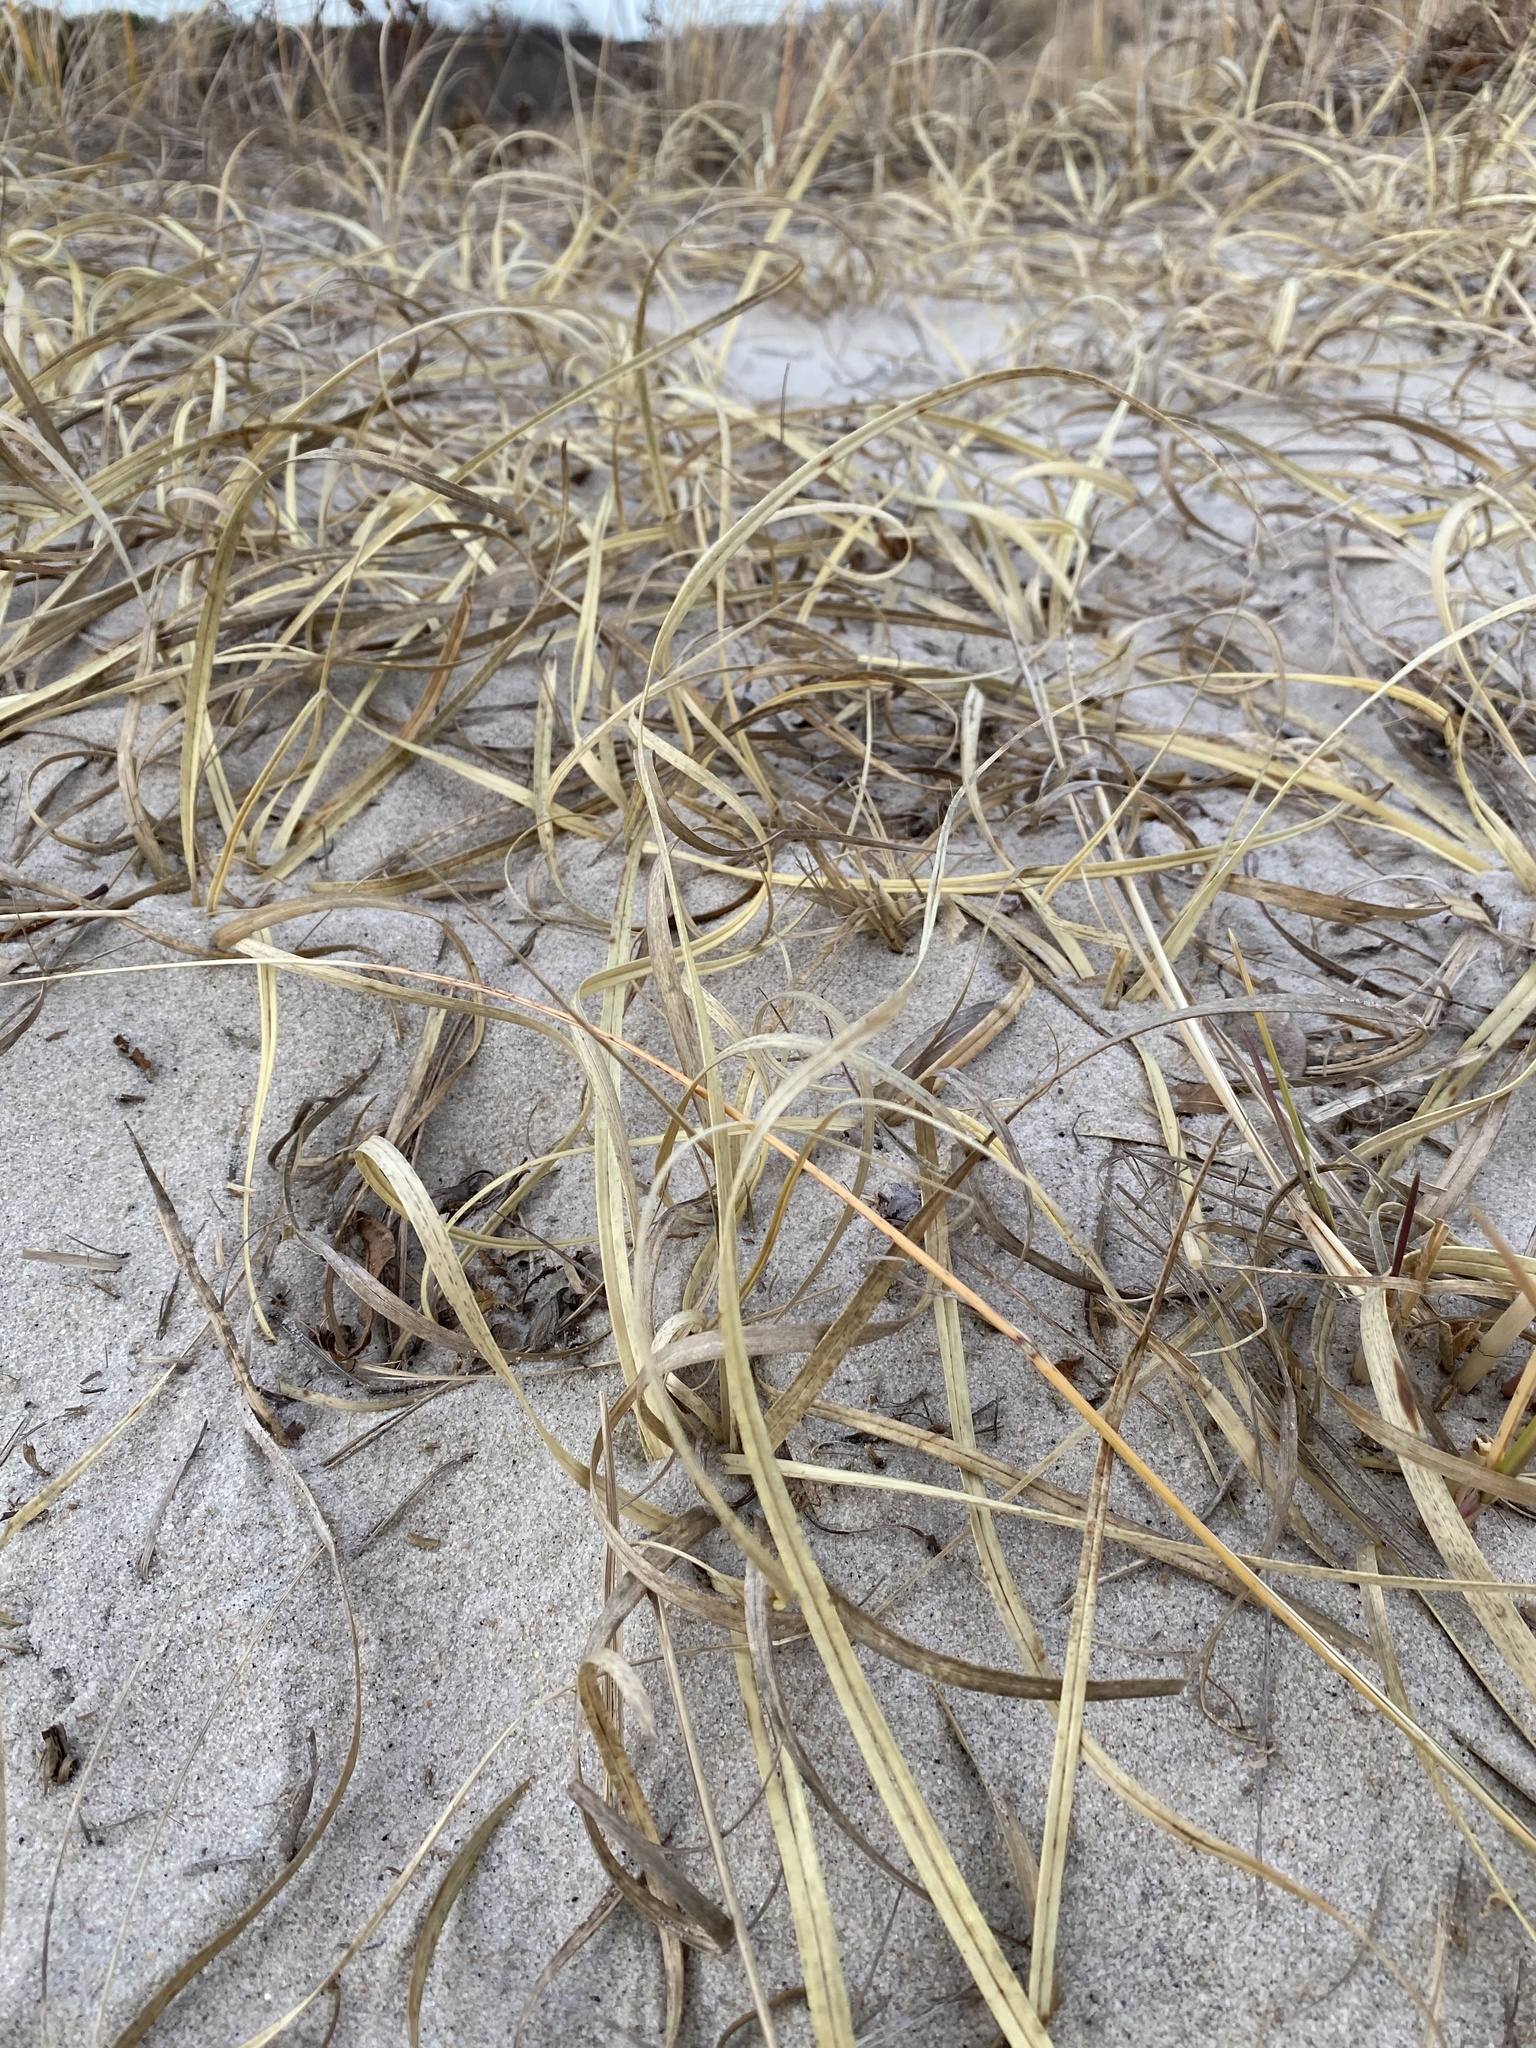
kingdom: Plantae
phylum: Tracheophyta
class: Liliopsida
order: Poales
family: Cyperaceae
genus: Carex
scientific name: Carex kobomugi
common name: Japanese sedge
